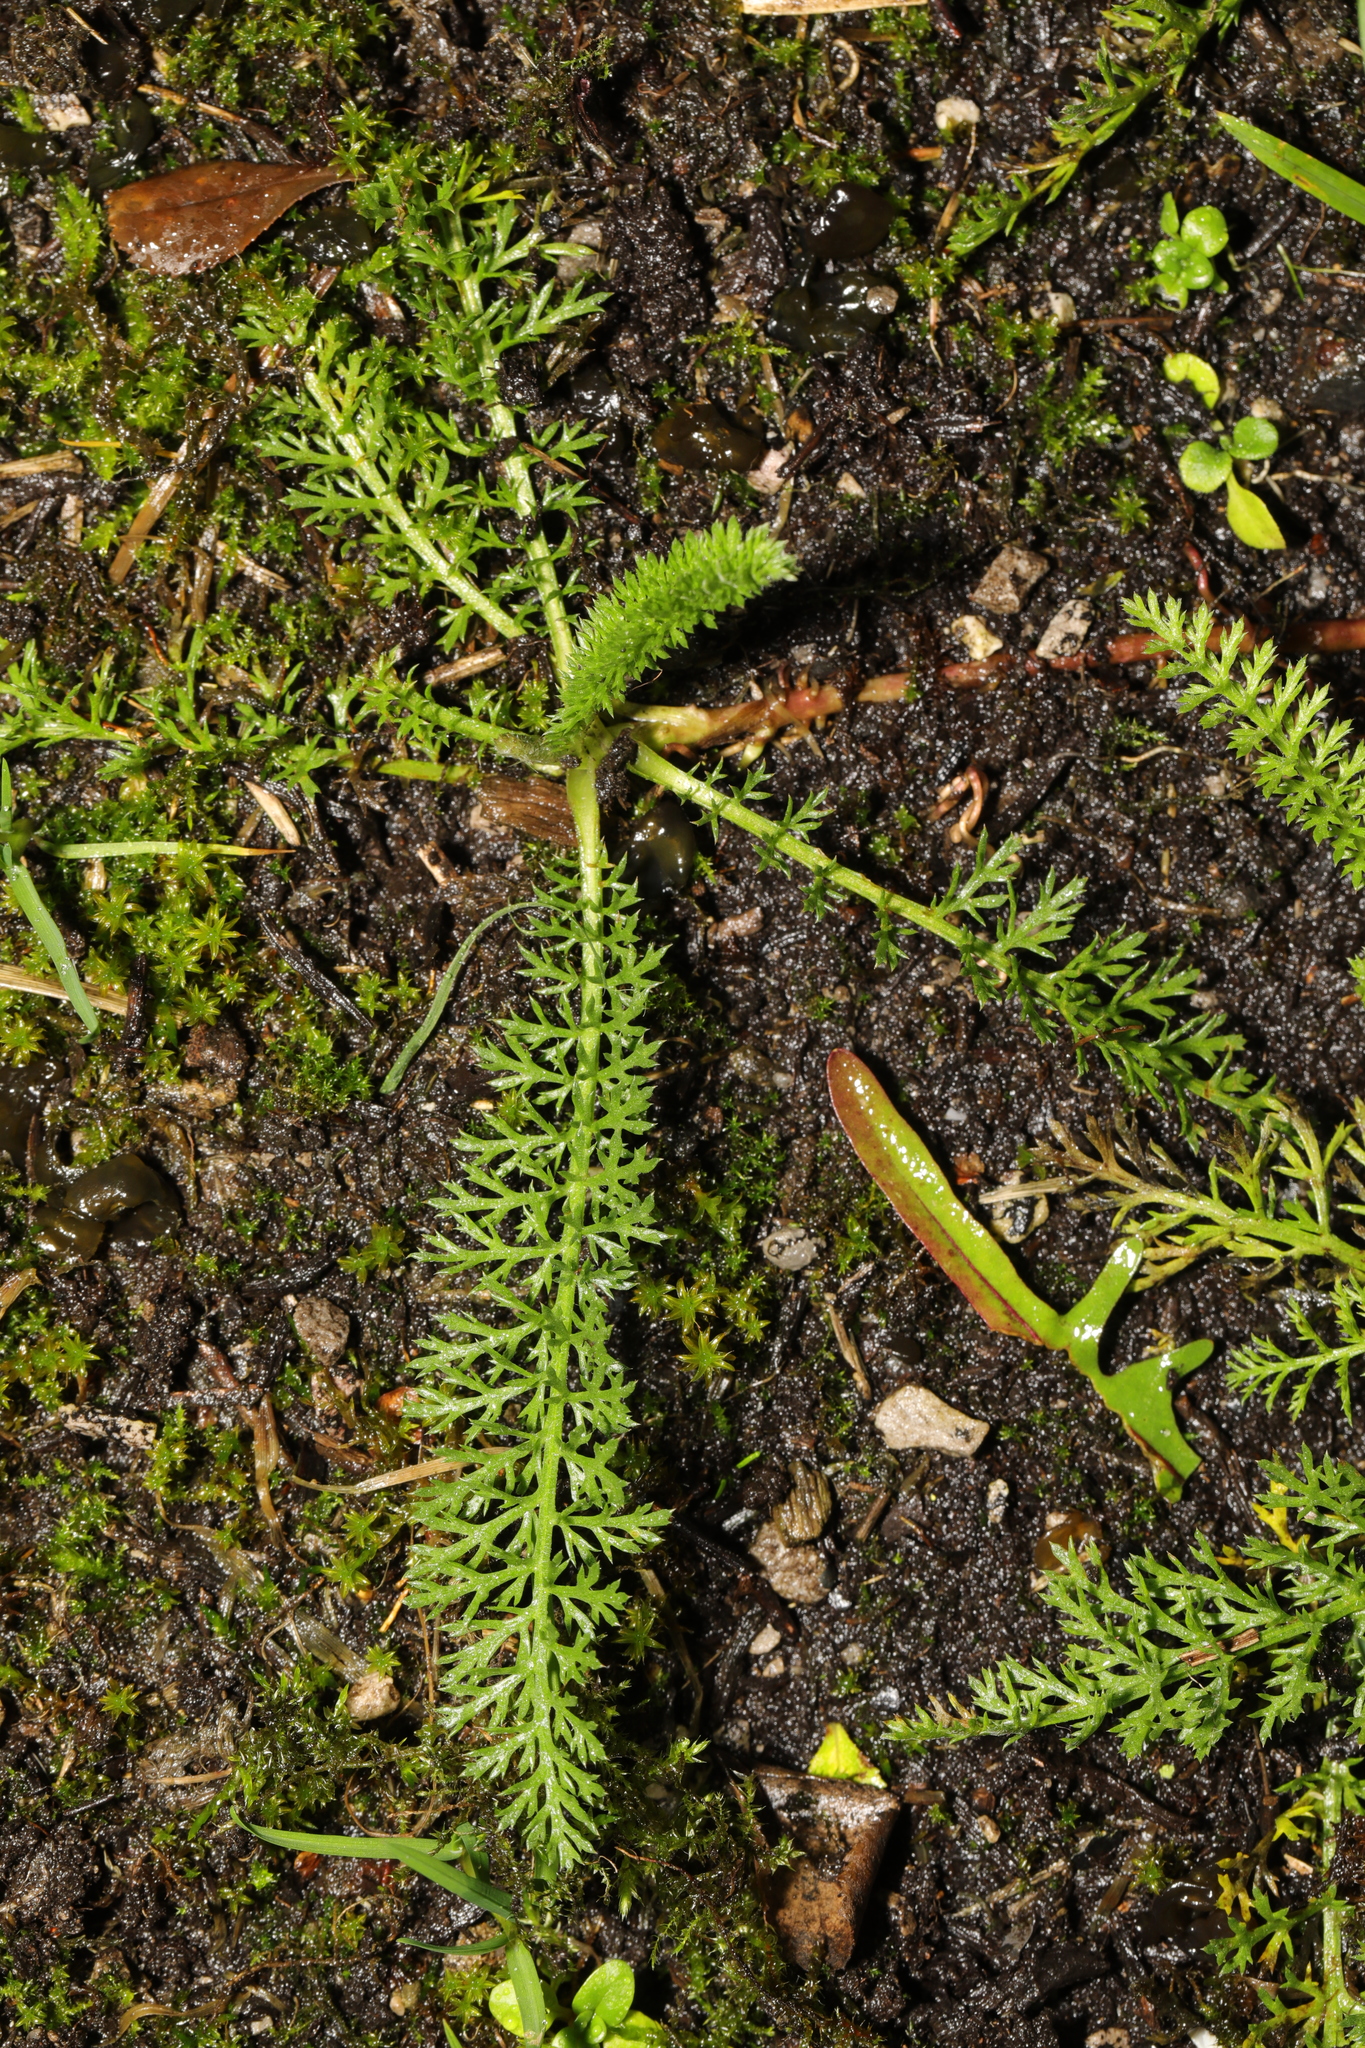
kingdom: Plantae
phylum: Tracheophyta
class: Magnoliopsida
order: Asterales
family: Asteraceae
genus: Achillea
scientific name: Achillea millefolium
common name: Yarrow
